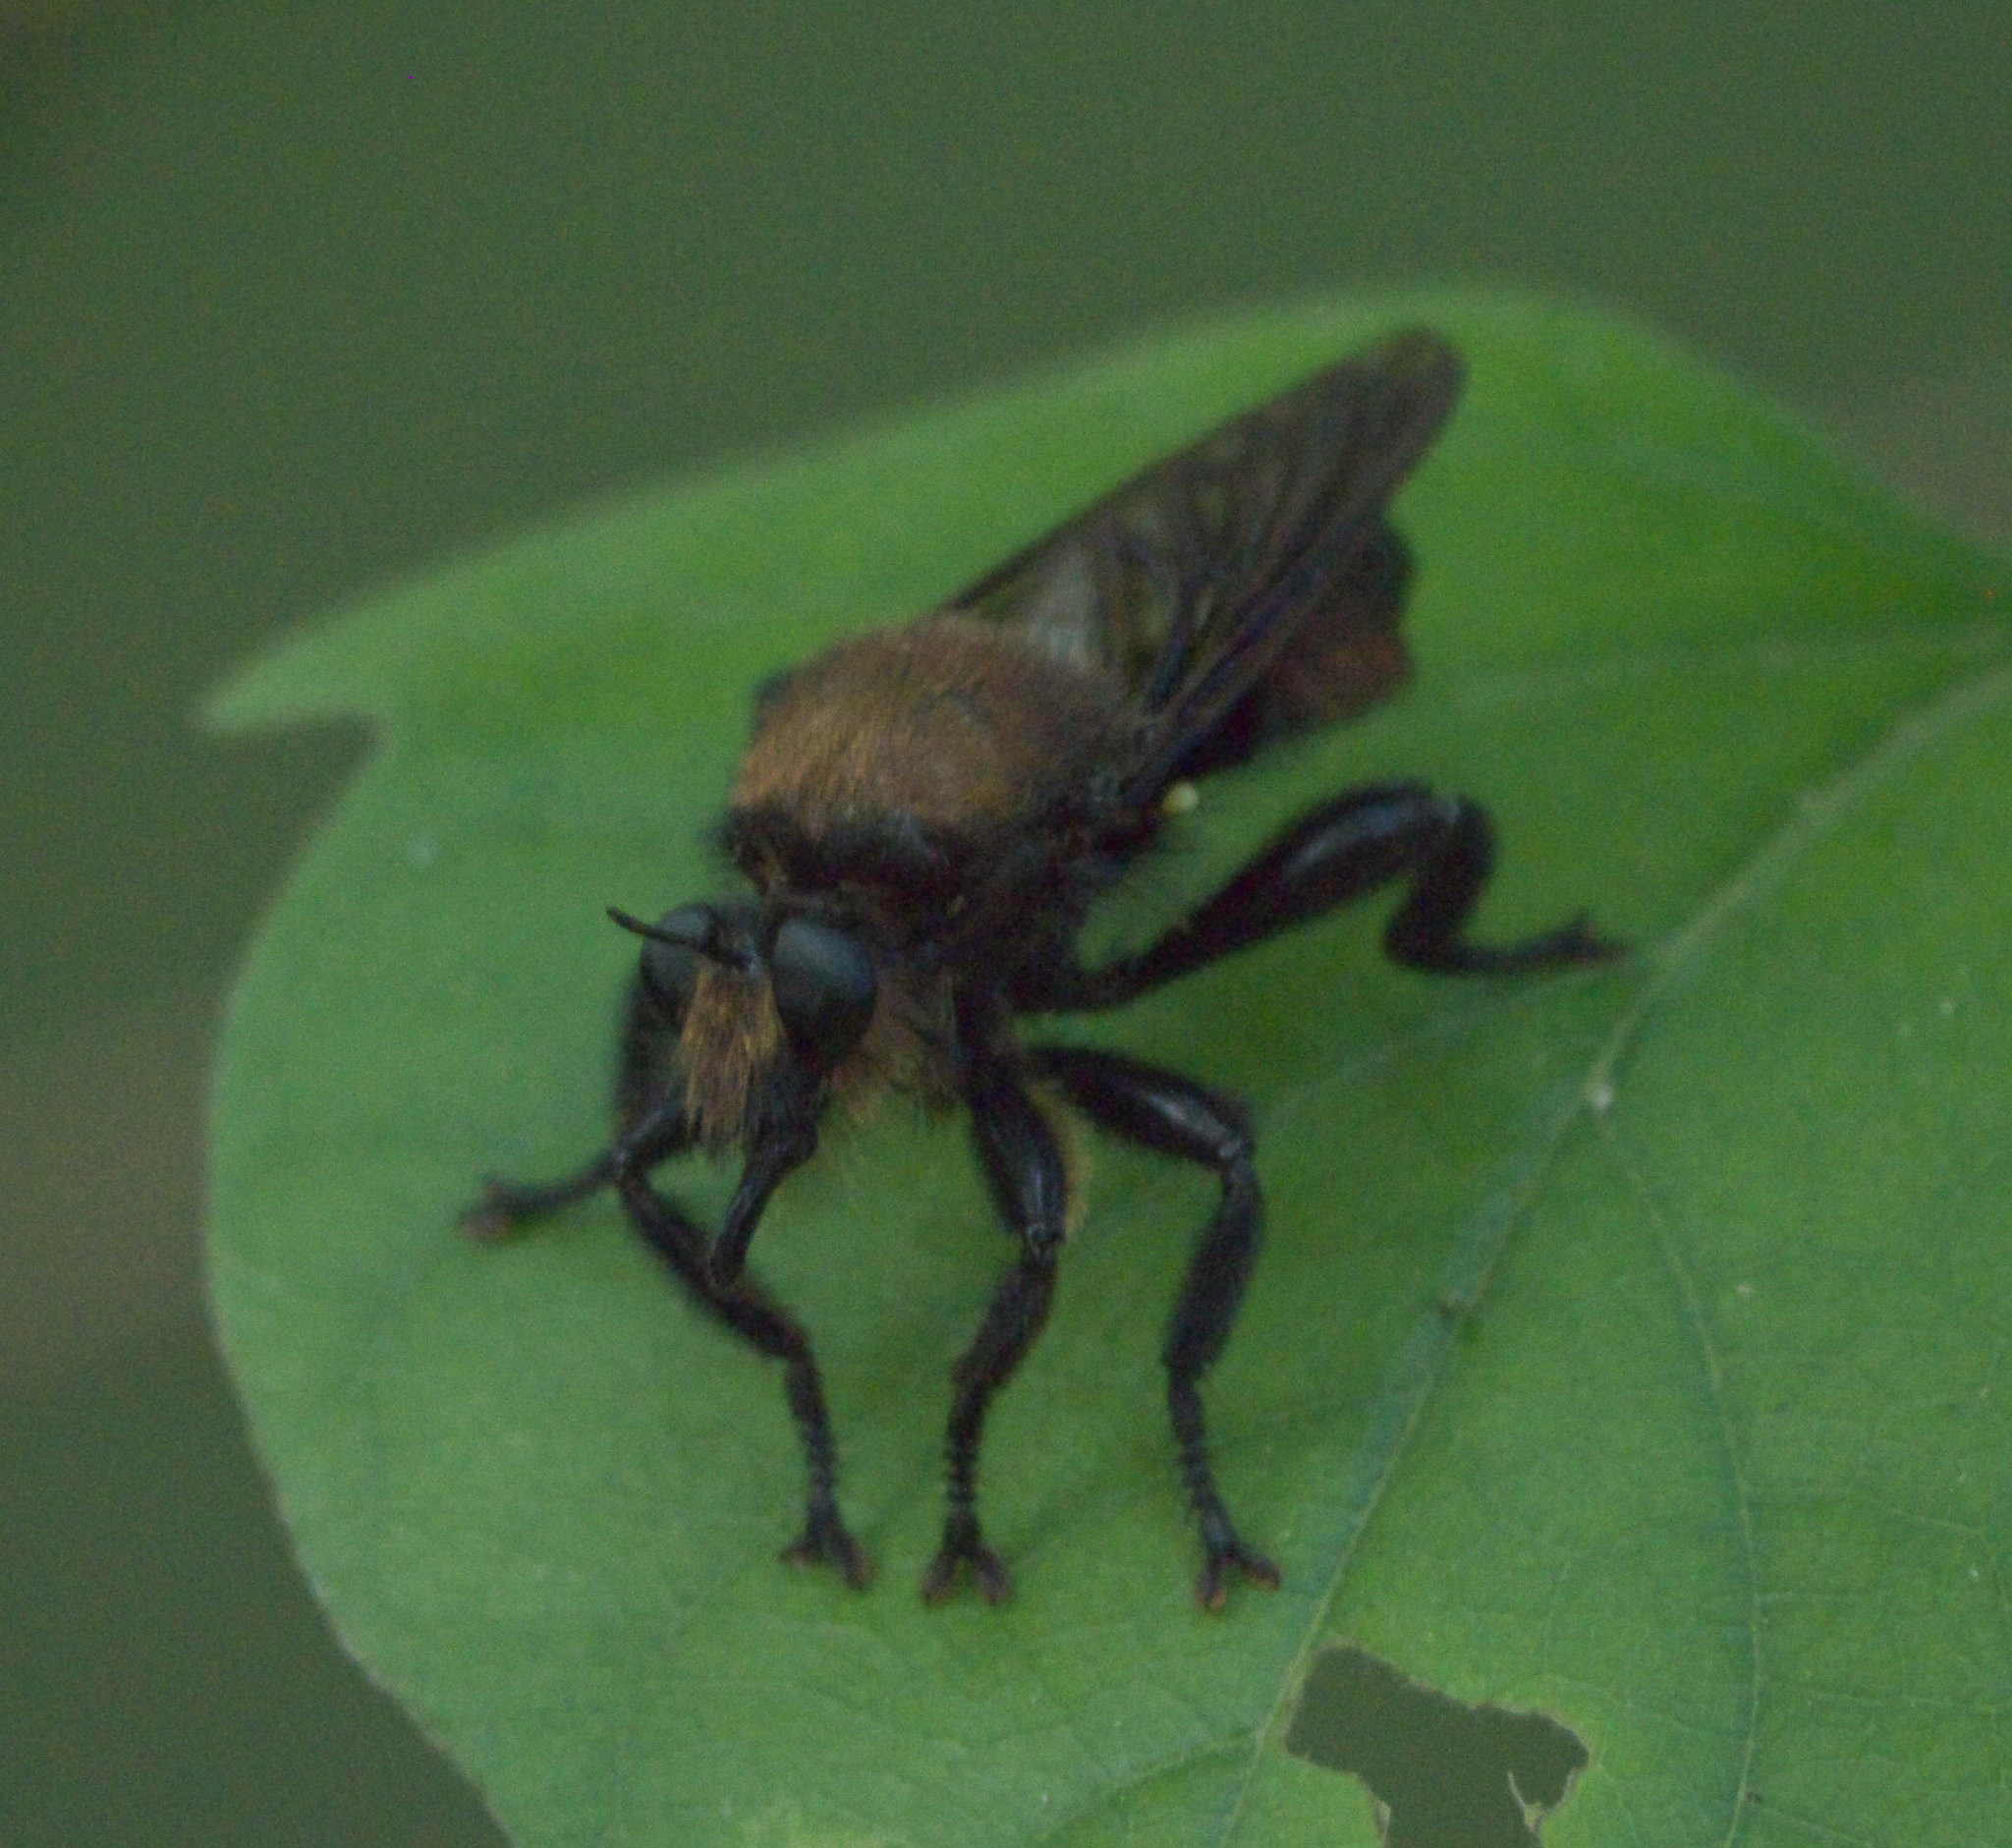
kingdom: Animalia
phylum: Arthropoda
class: Insecta
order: Diptera
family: Asilidae
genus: Laphria
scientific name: Laphria lata
